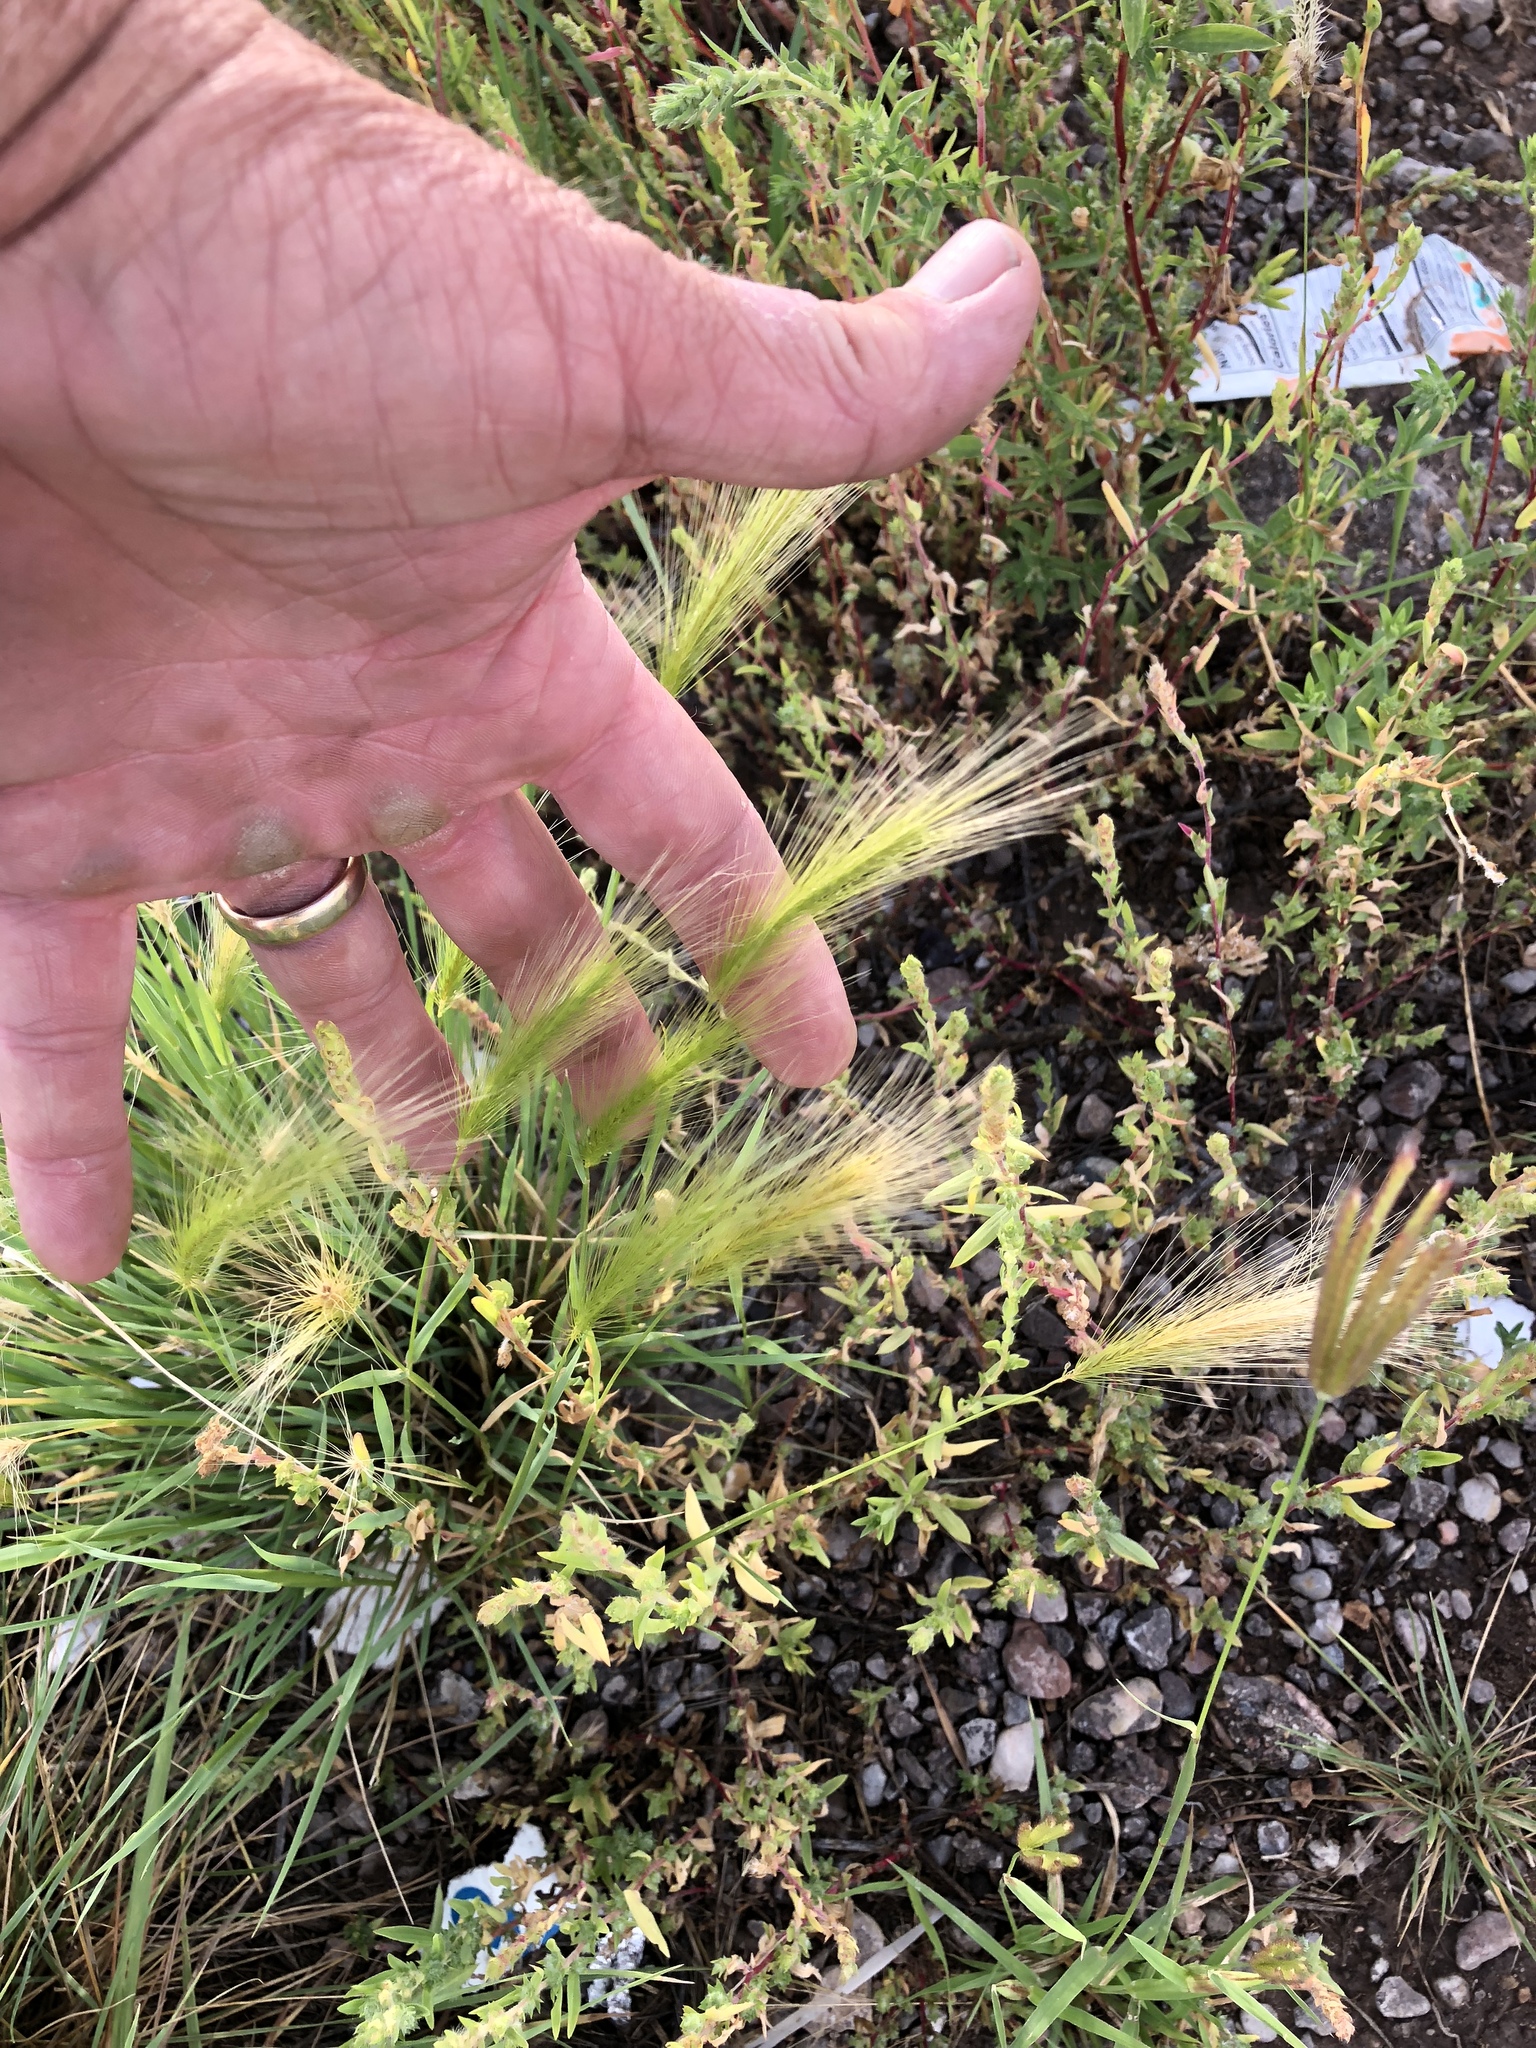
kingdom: Plantae
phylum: Tracheophyta
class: Liliopsida
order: Poales
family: Poaceae
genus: Hordeum
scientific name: Hordeum jubatum
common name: Foxtail barley
